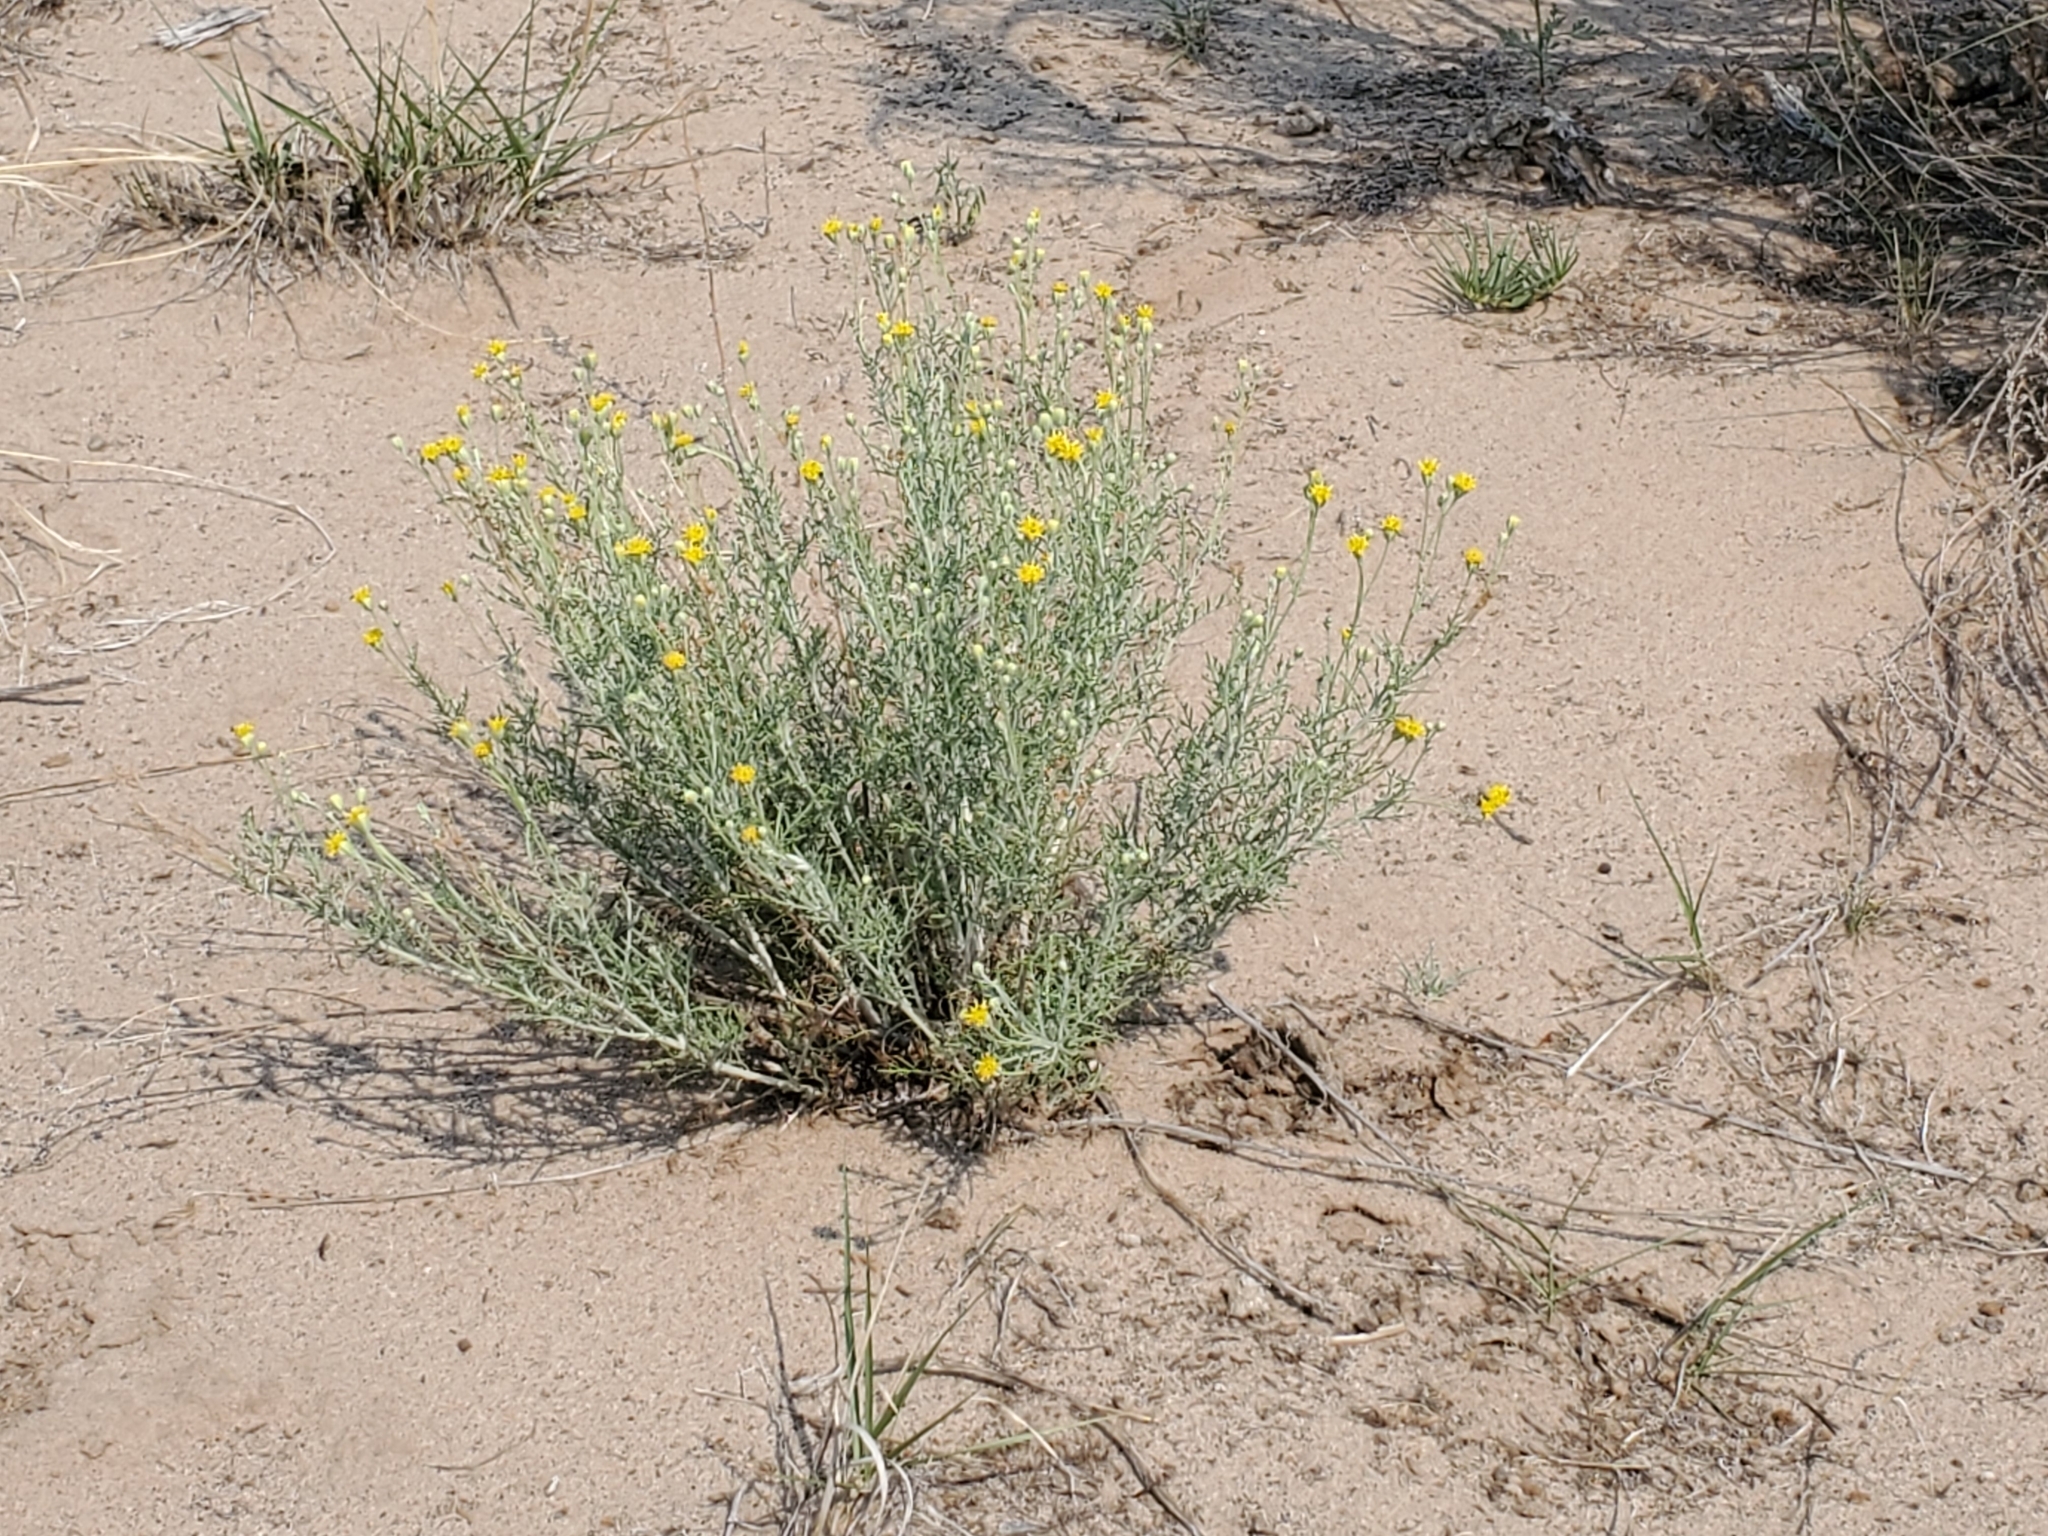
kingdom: Plantae
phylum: Tracheophyta
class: Magnoliopsida
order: Asterales
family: Asteraceae
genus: Hymenopappus
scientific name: Hymenopappus flavescens
